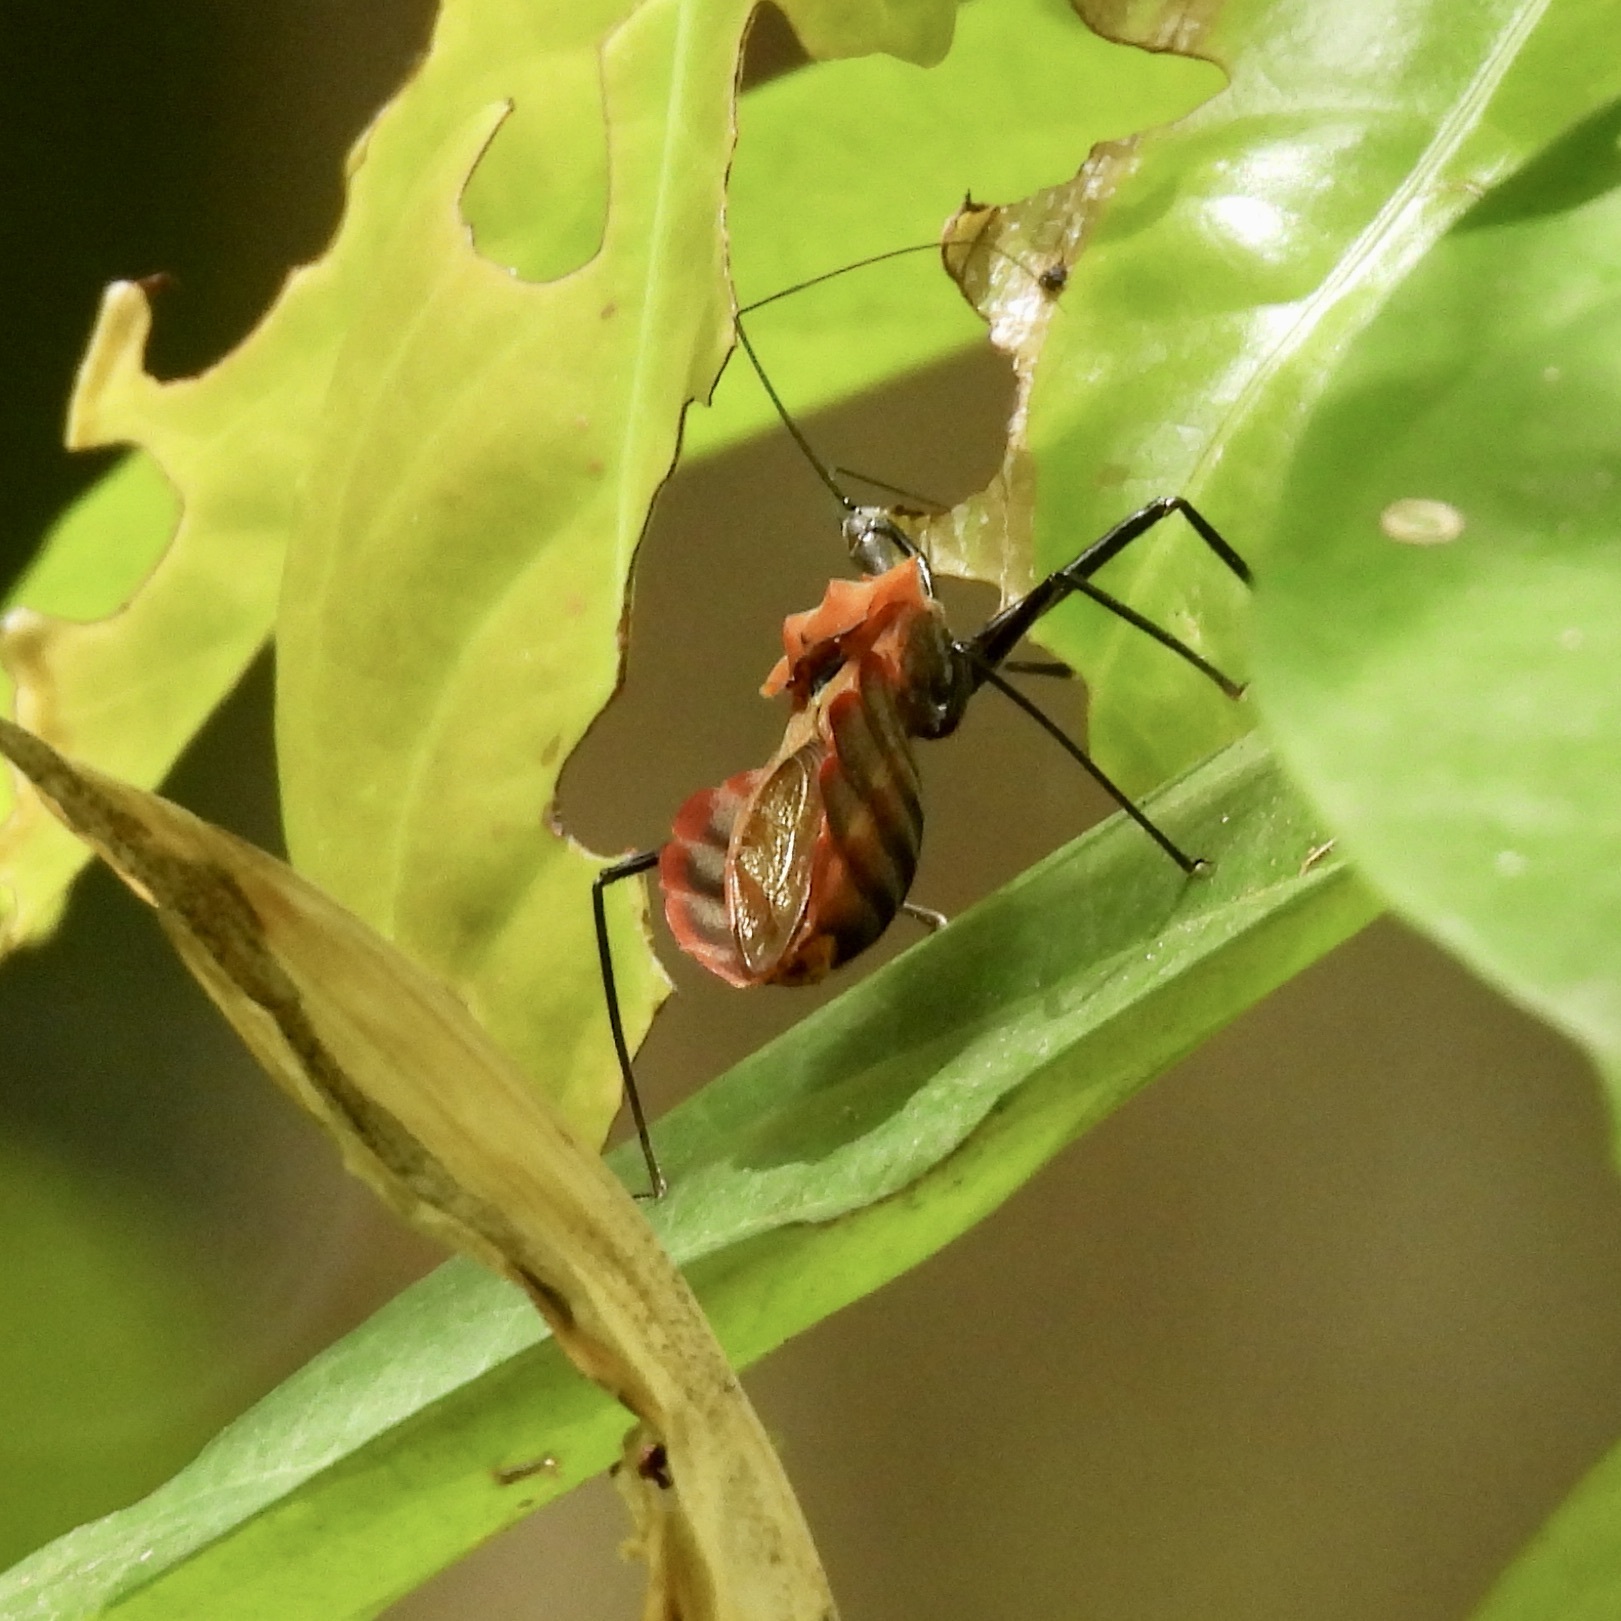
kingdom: Animalia
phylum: Arthropoda
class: Insecta
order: Hemiptera
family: Reduviidae
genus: Montina
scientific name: Montina scutellaris
